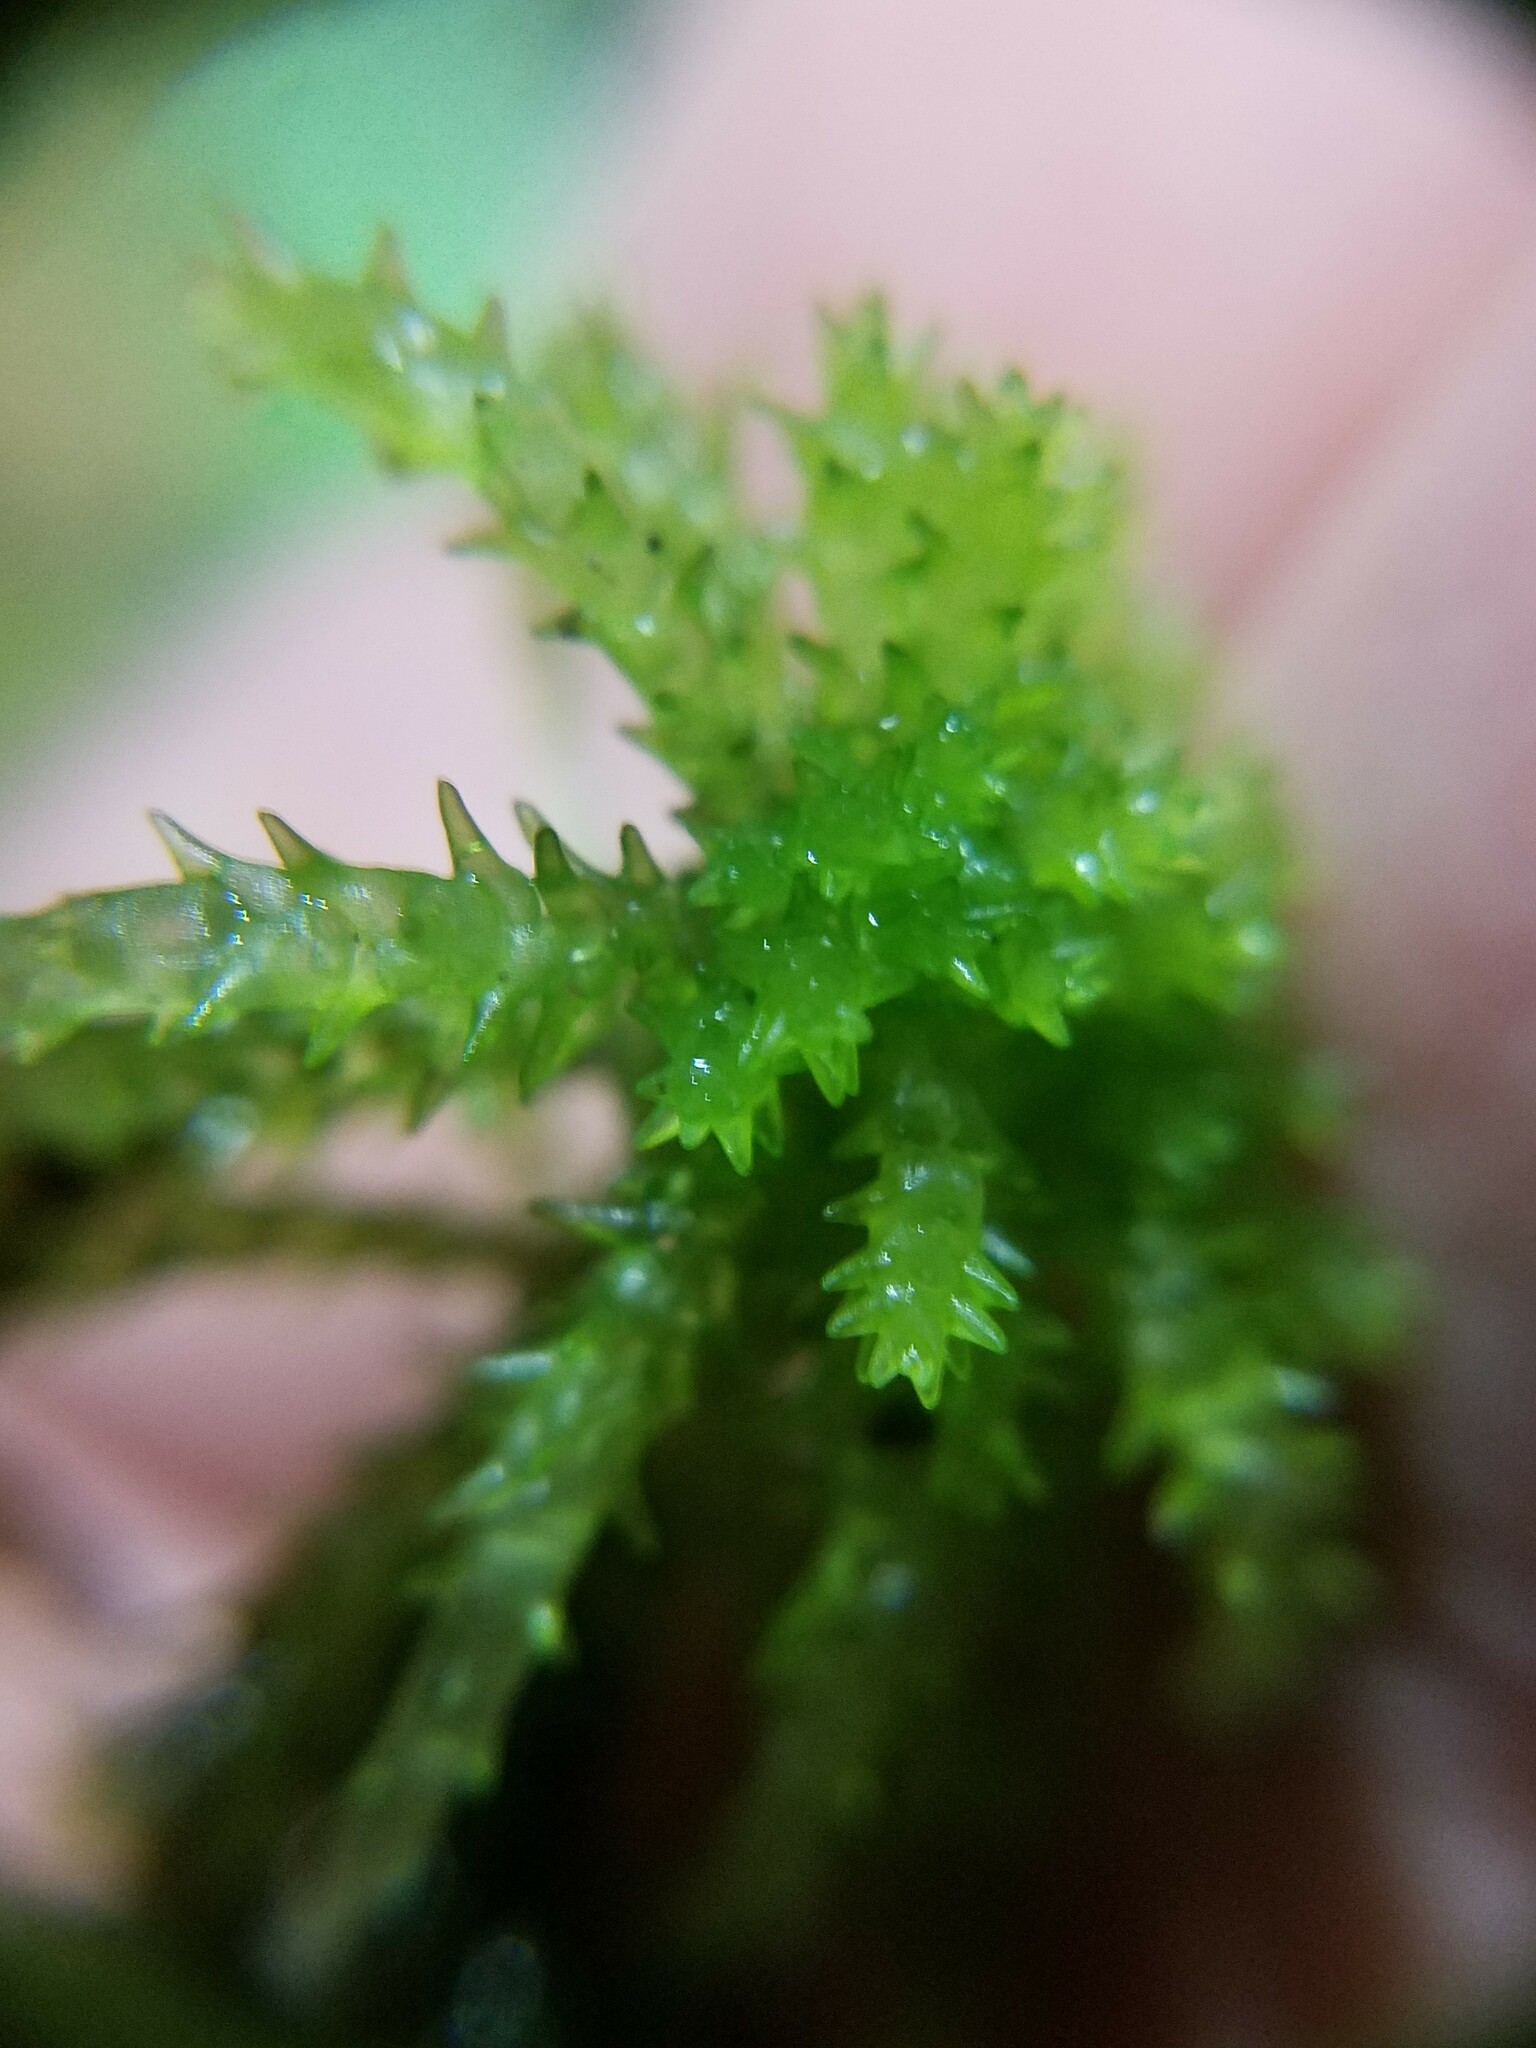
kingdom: Plantae
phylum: Bryophyta
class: Sphagnopsida
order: Sphagnales
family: Sphagnaceae
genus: Sphagnum
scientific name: Sphagnum palustre
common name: Blunt-leaved bog-moss
